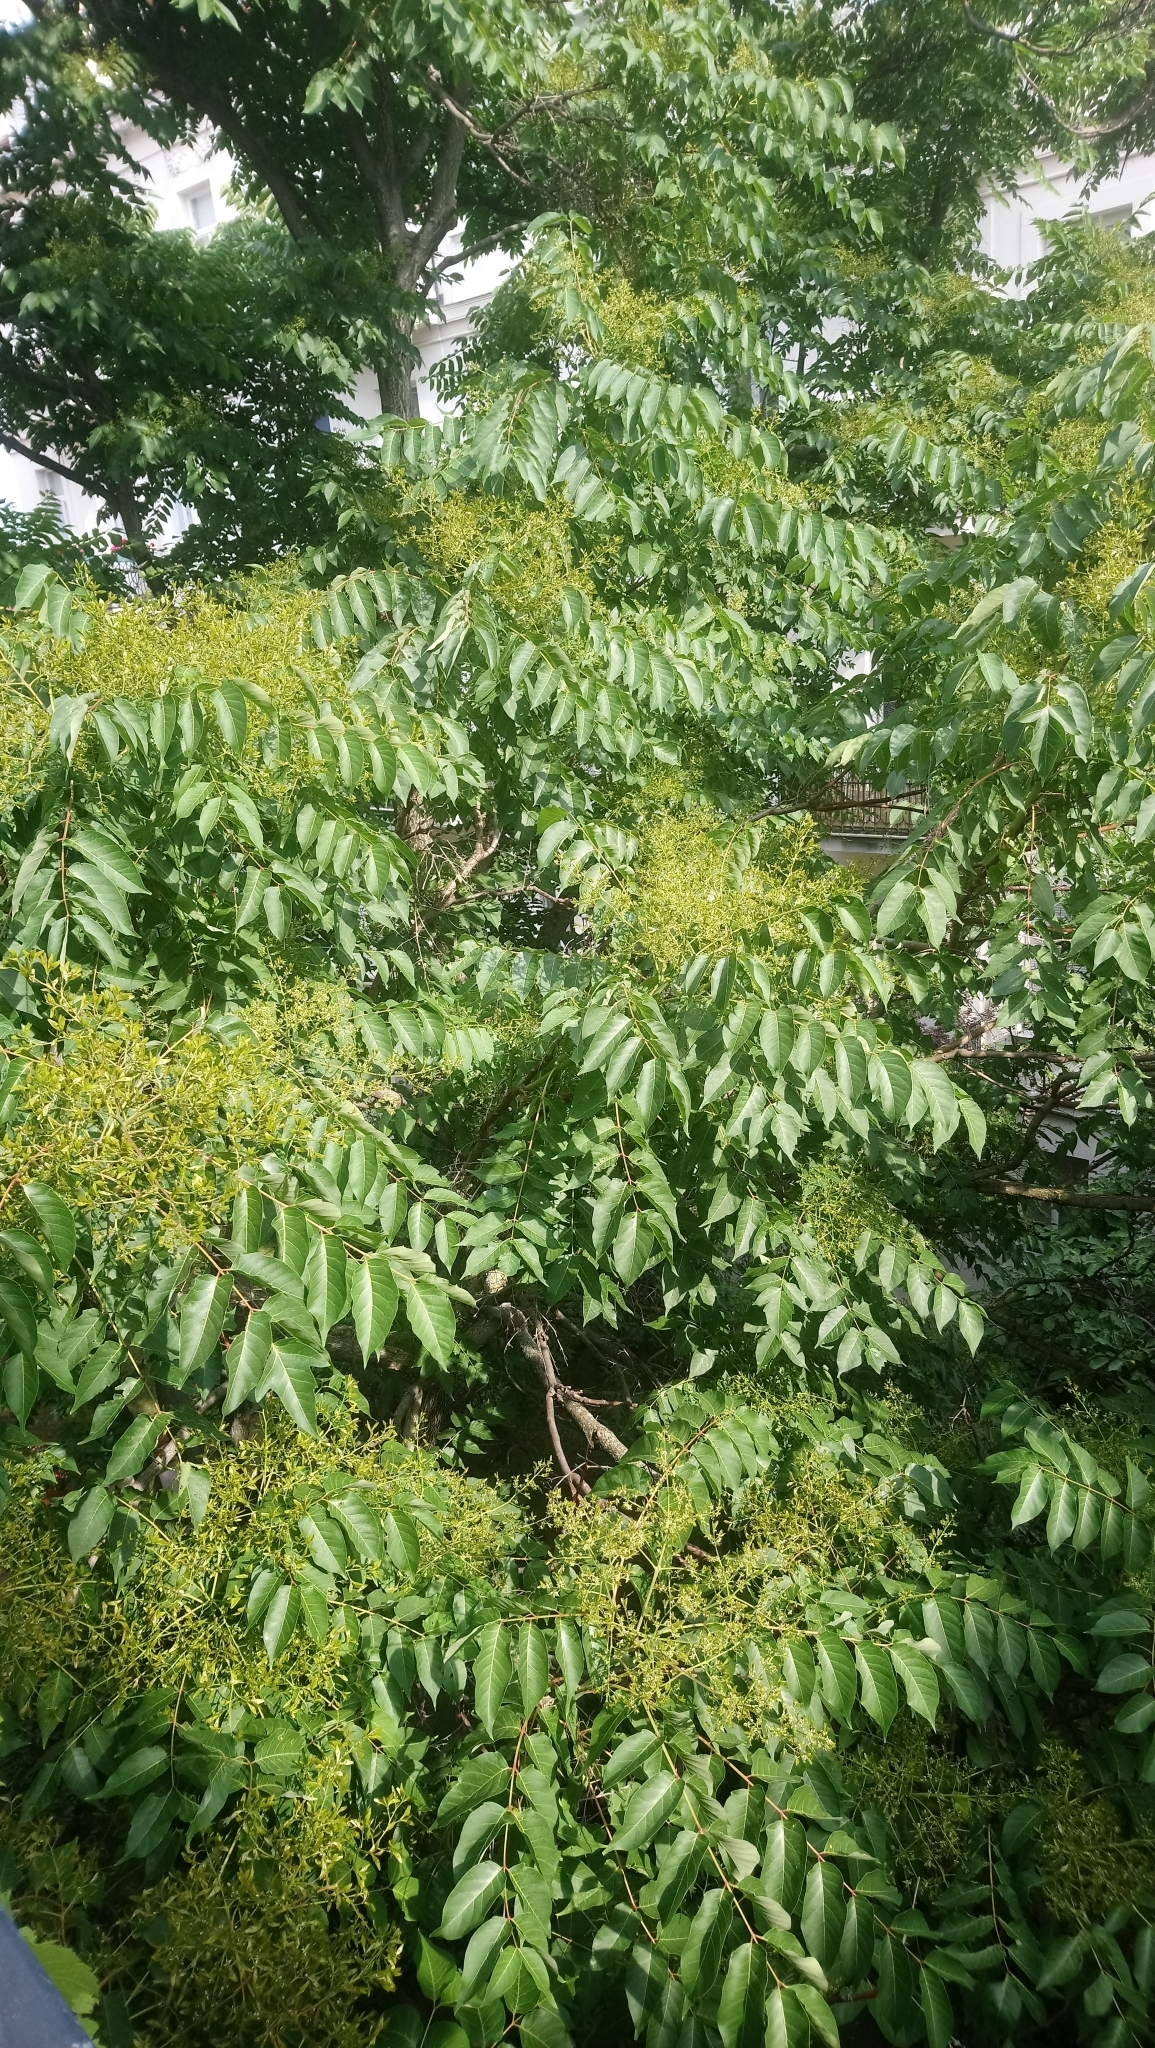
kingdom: Plantae
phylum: Tracheophyta
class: Magnoliopsida
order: Sapindales
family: Simaroubaceae
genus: Ailanthus
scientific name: Ailanthus altissima
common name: Tree-of-heaven
